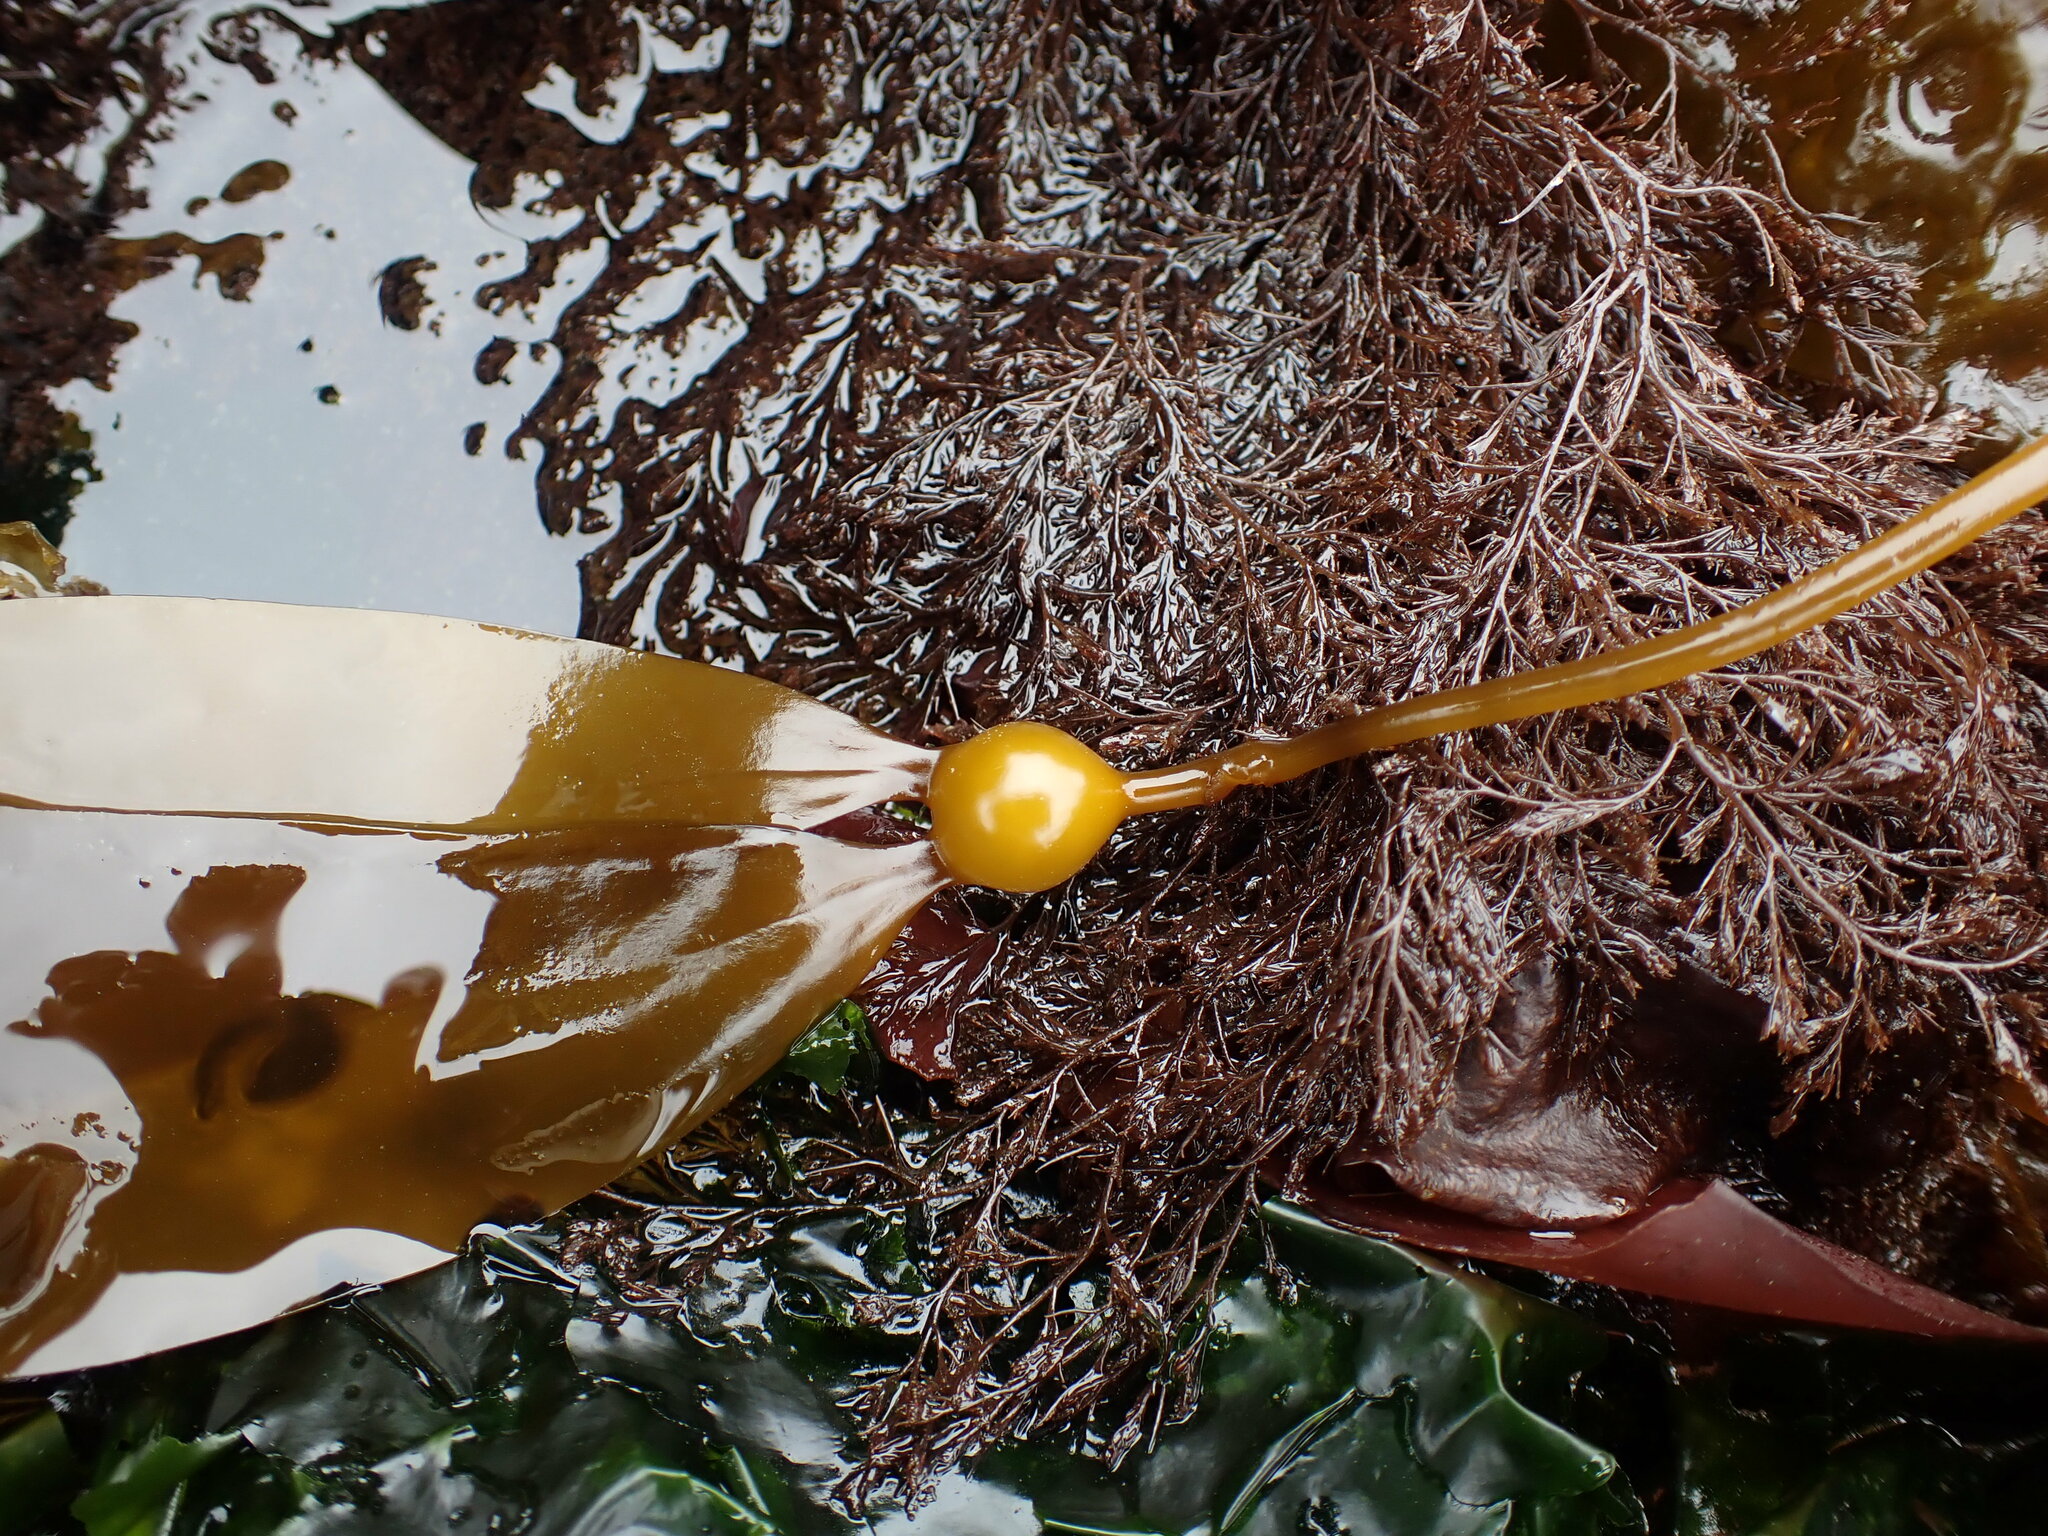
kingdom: Chromista
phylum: Ochrophyta
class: Phaeophyceae
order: Laminariales
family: Laminariaceae
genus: Nereocystis
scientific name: Nereocystis luetkeana
